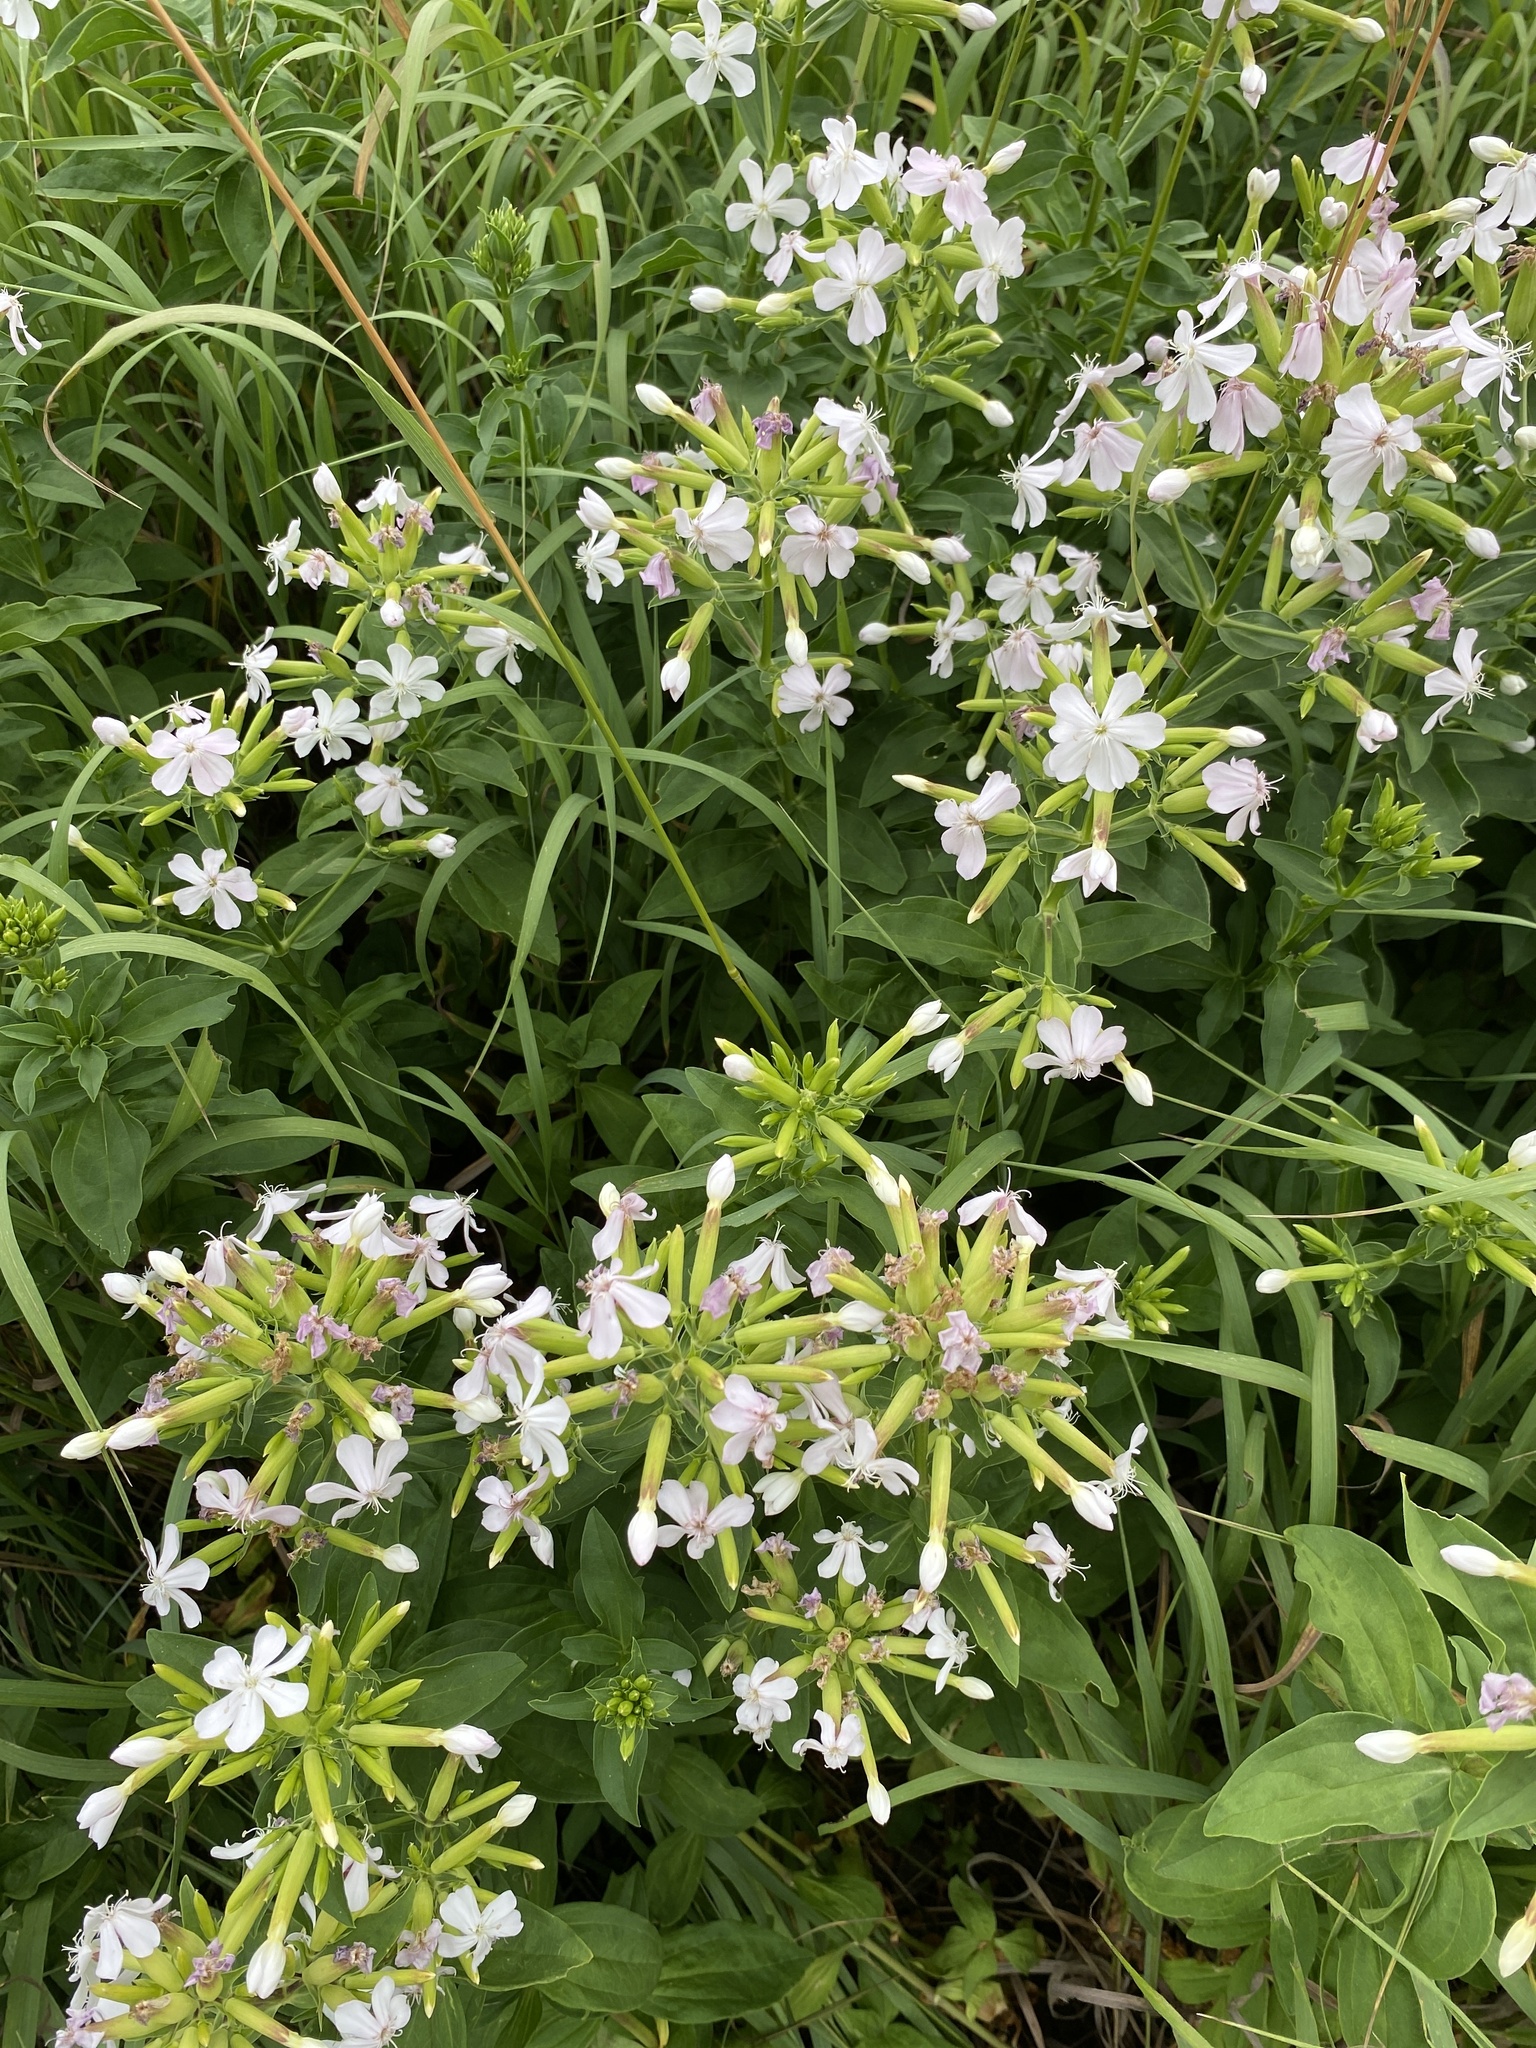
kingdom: Plantae
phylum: Tracheophyta
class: Magnoliopsida
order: Caryophyllales
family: Caryophyllaceae
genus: Saponaria
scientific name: Saponaria officinalis
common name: Soapwort
